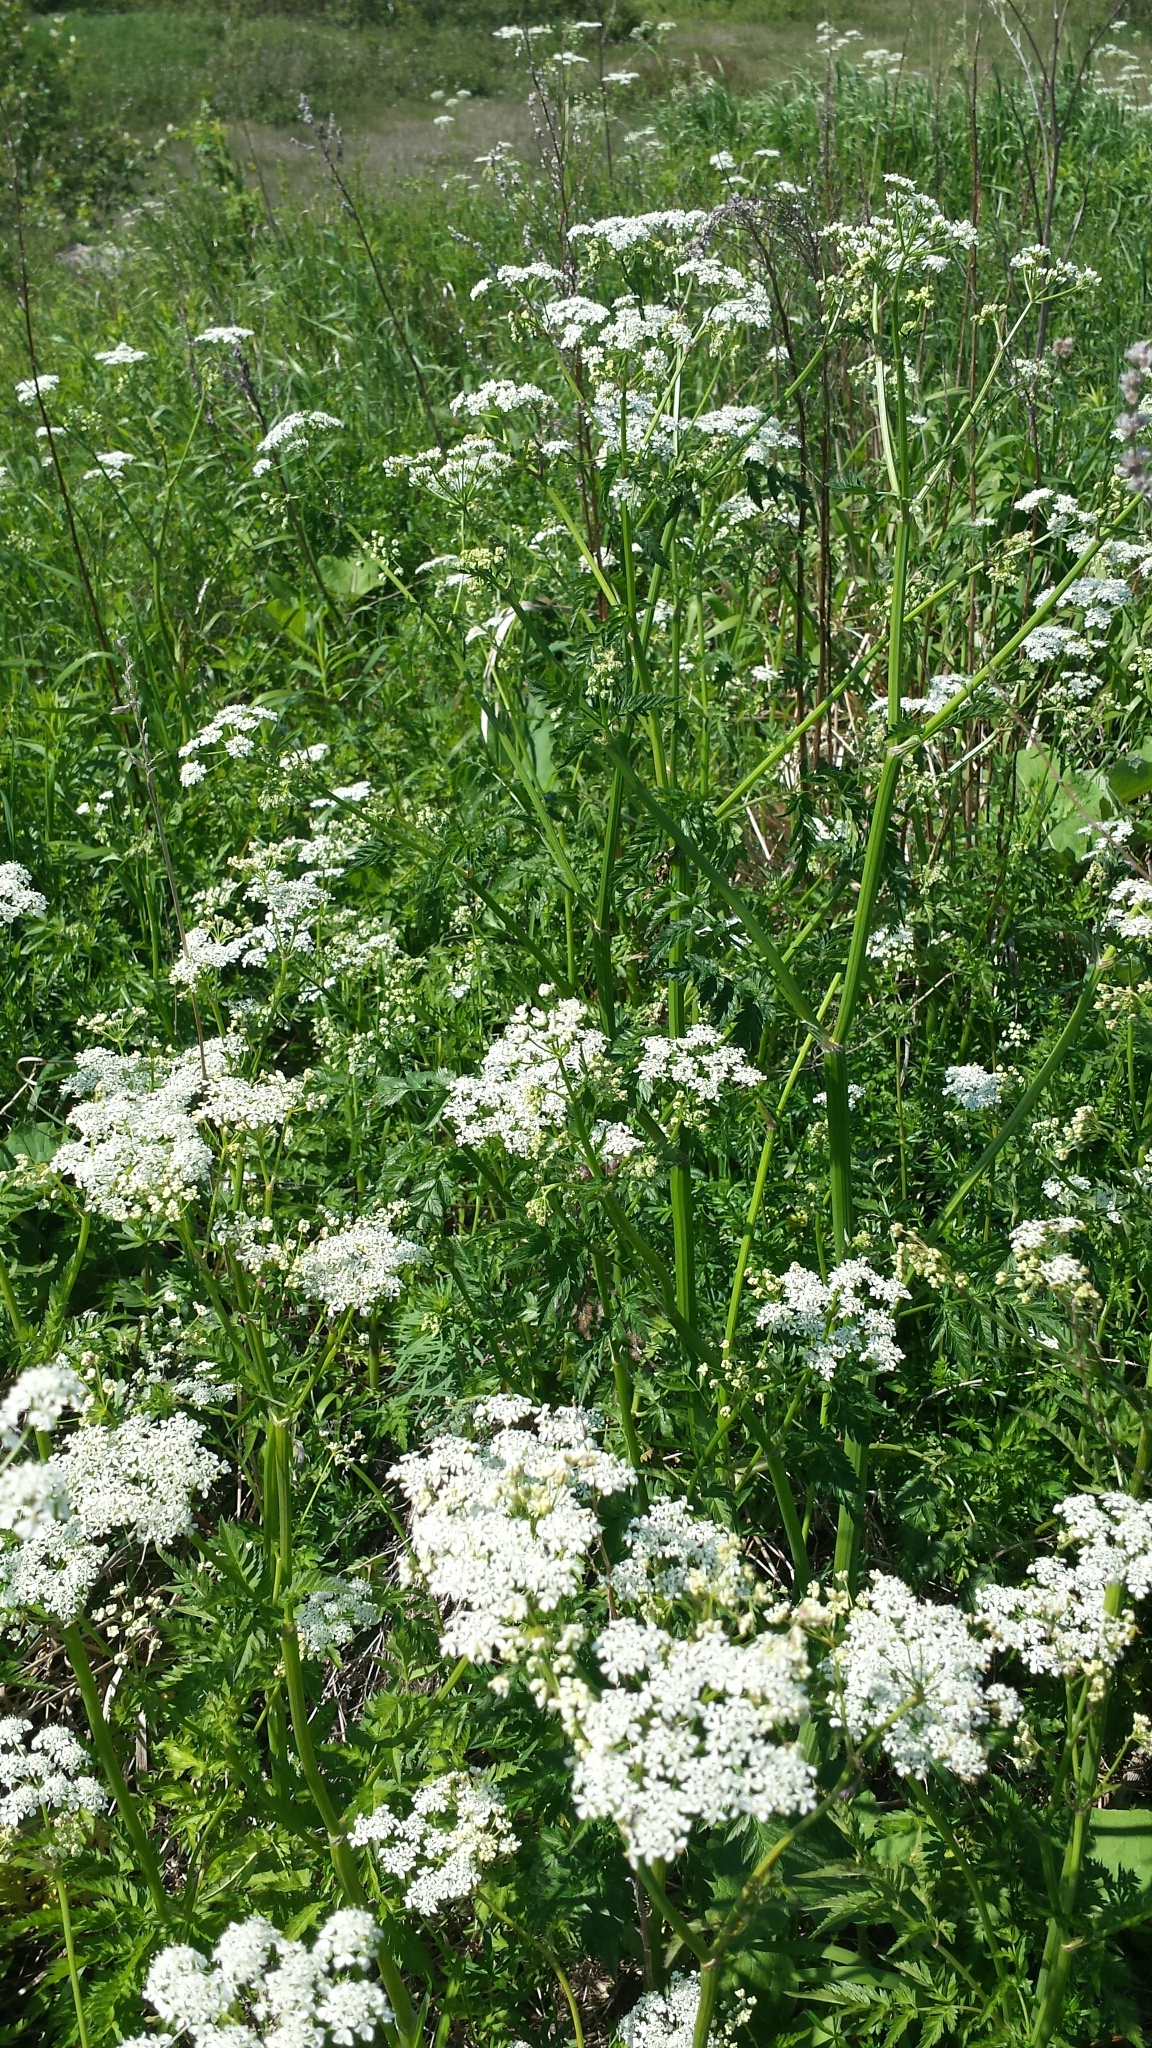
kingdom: Plantae
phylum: Tracheophyta
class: Magnoliopsida
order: Apiales
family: Apiaceae
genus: Anthriscus
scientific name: Anthriscus sylvestris
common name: Cow parsley
